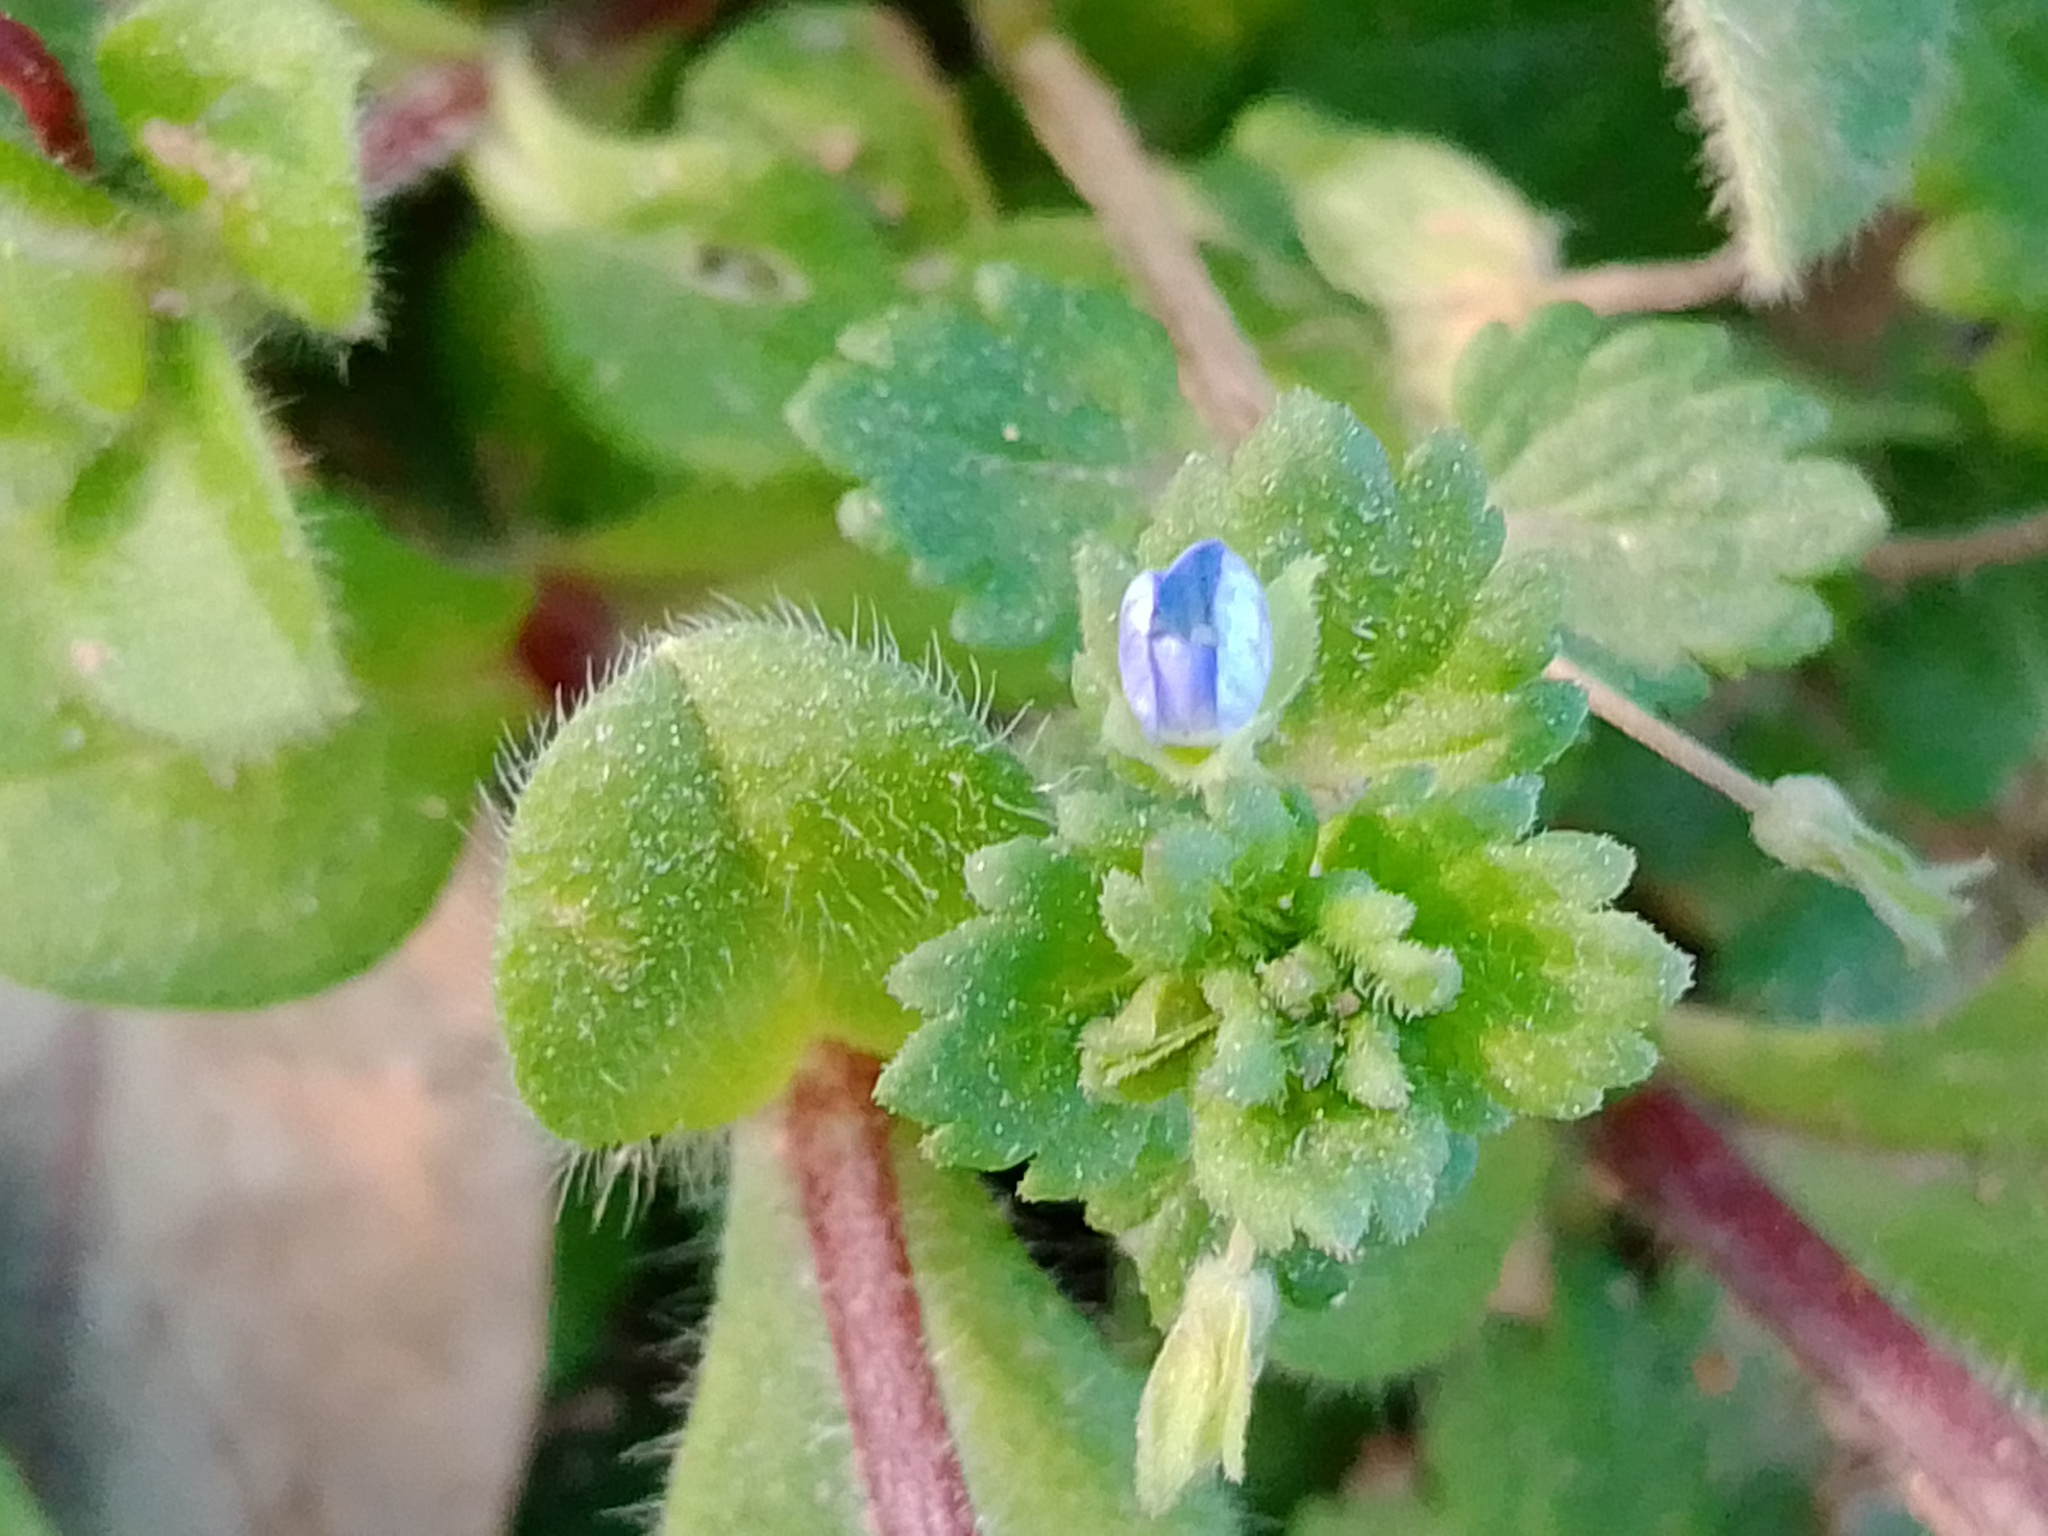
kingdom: Plantae
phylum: Tracheophyta
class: Magnoliopsida
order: Lamiales
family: Plantaginaceae
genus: Veronica
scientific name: Veronica persica
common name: Common field-speedwell
